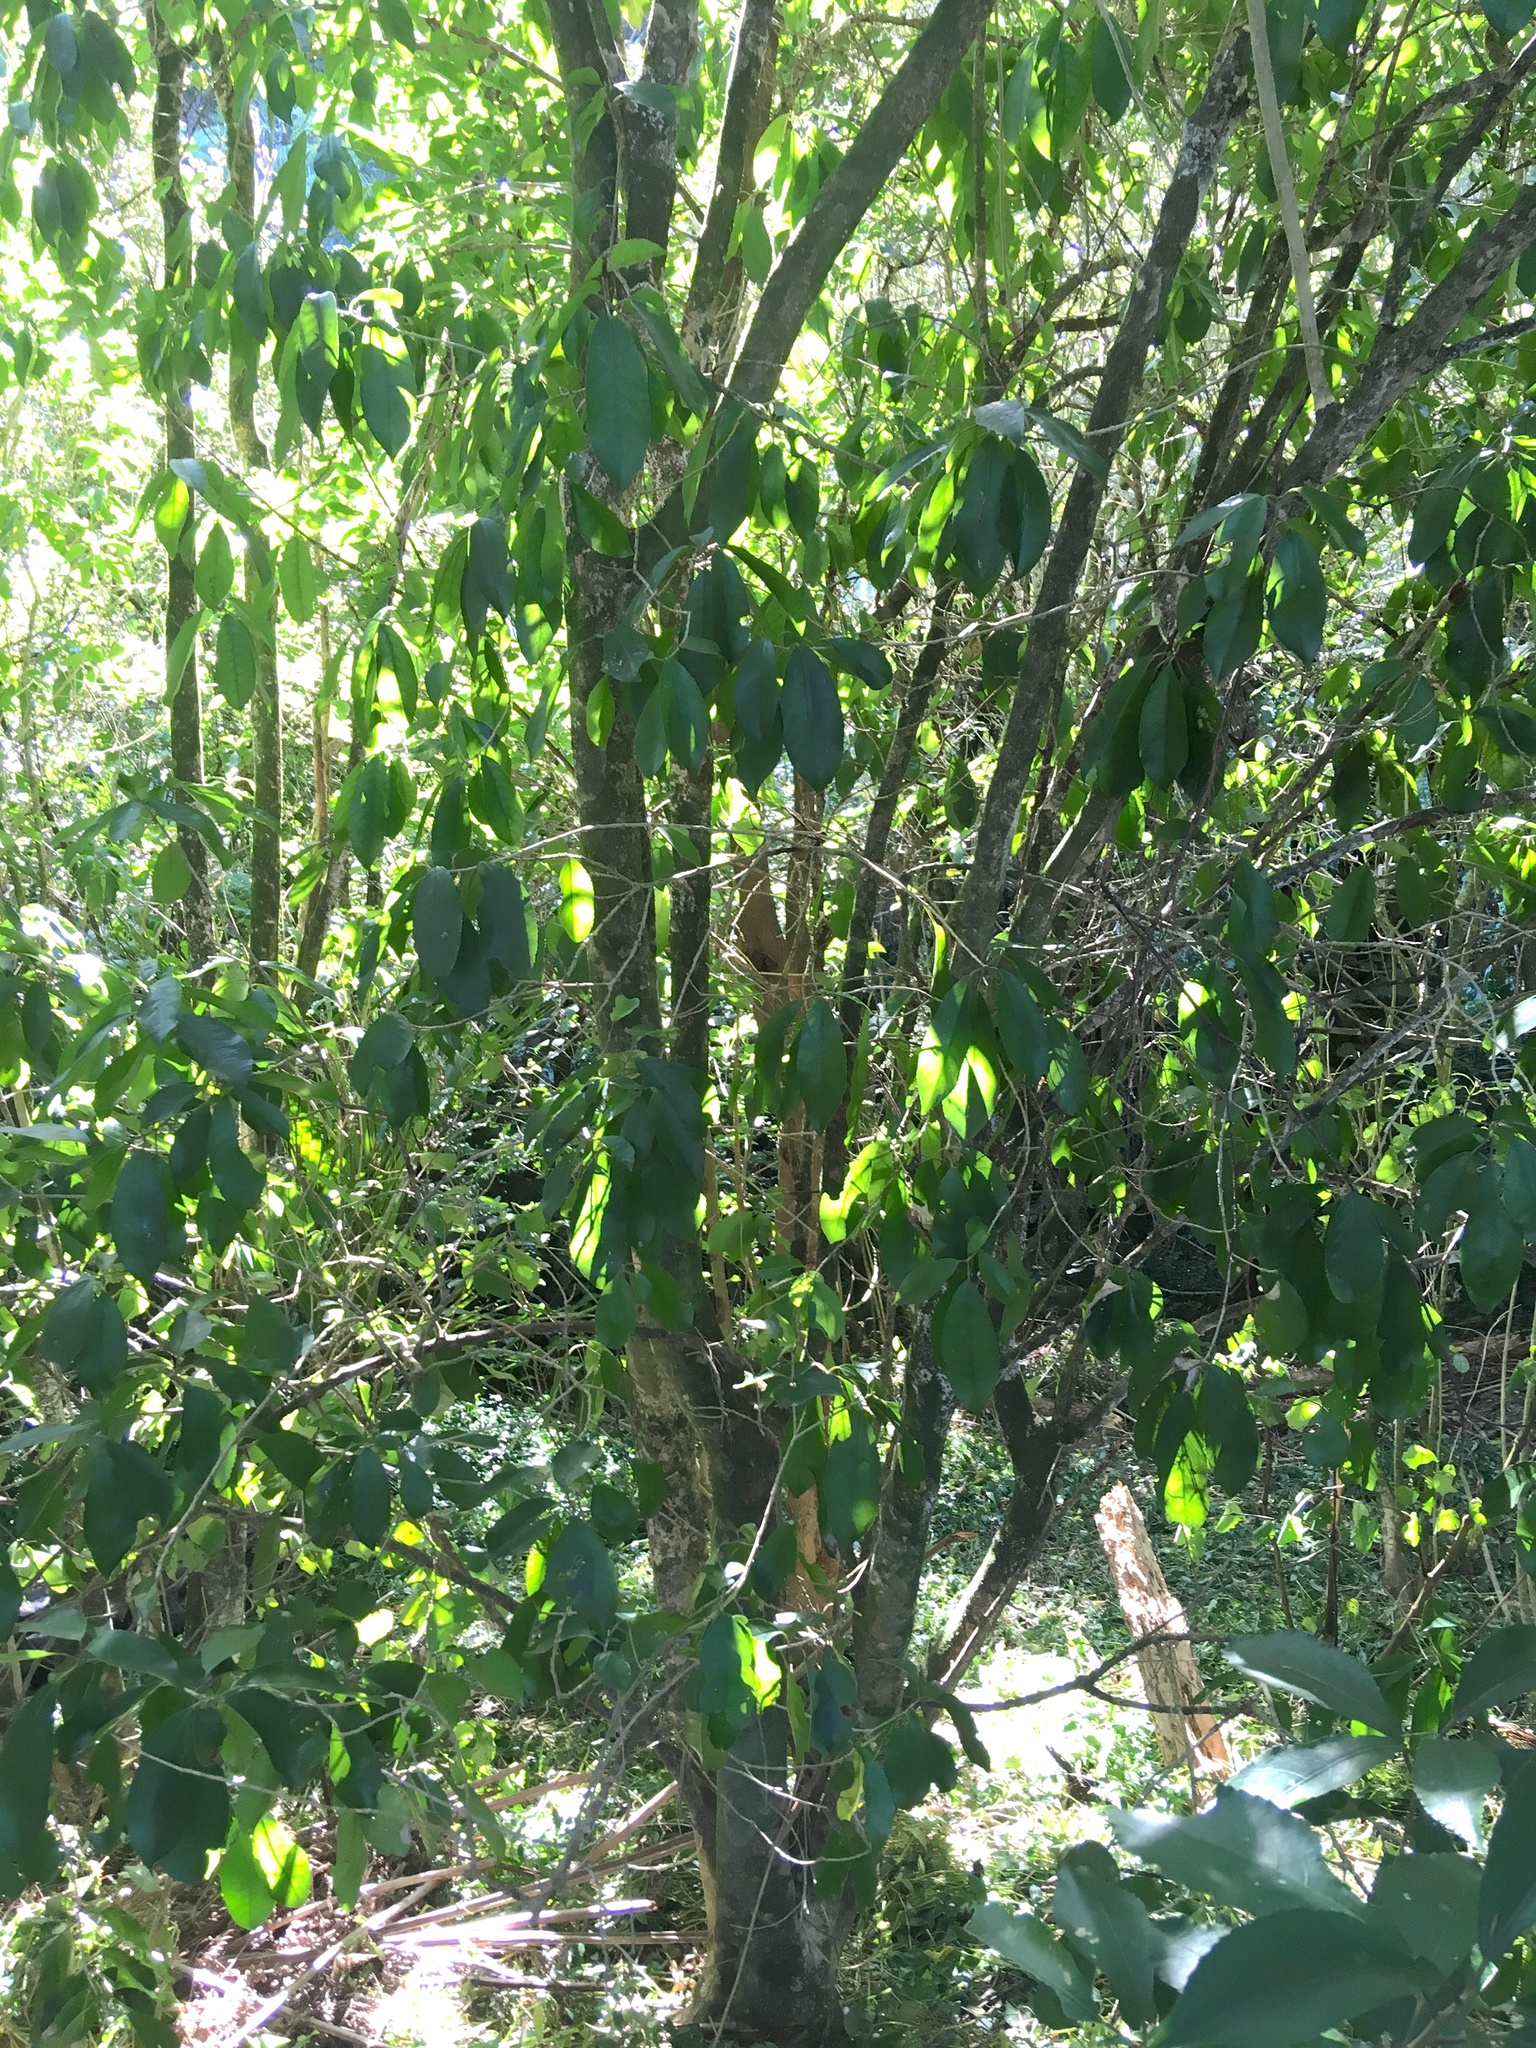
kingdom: Plantae
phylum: Tracheophyta
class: Magnoliopsida
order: Malpighiales
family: Violaceae
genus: Melicytus
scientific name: Melicytus ramiflorus
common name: Mahoe
